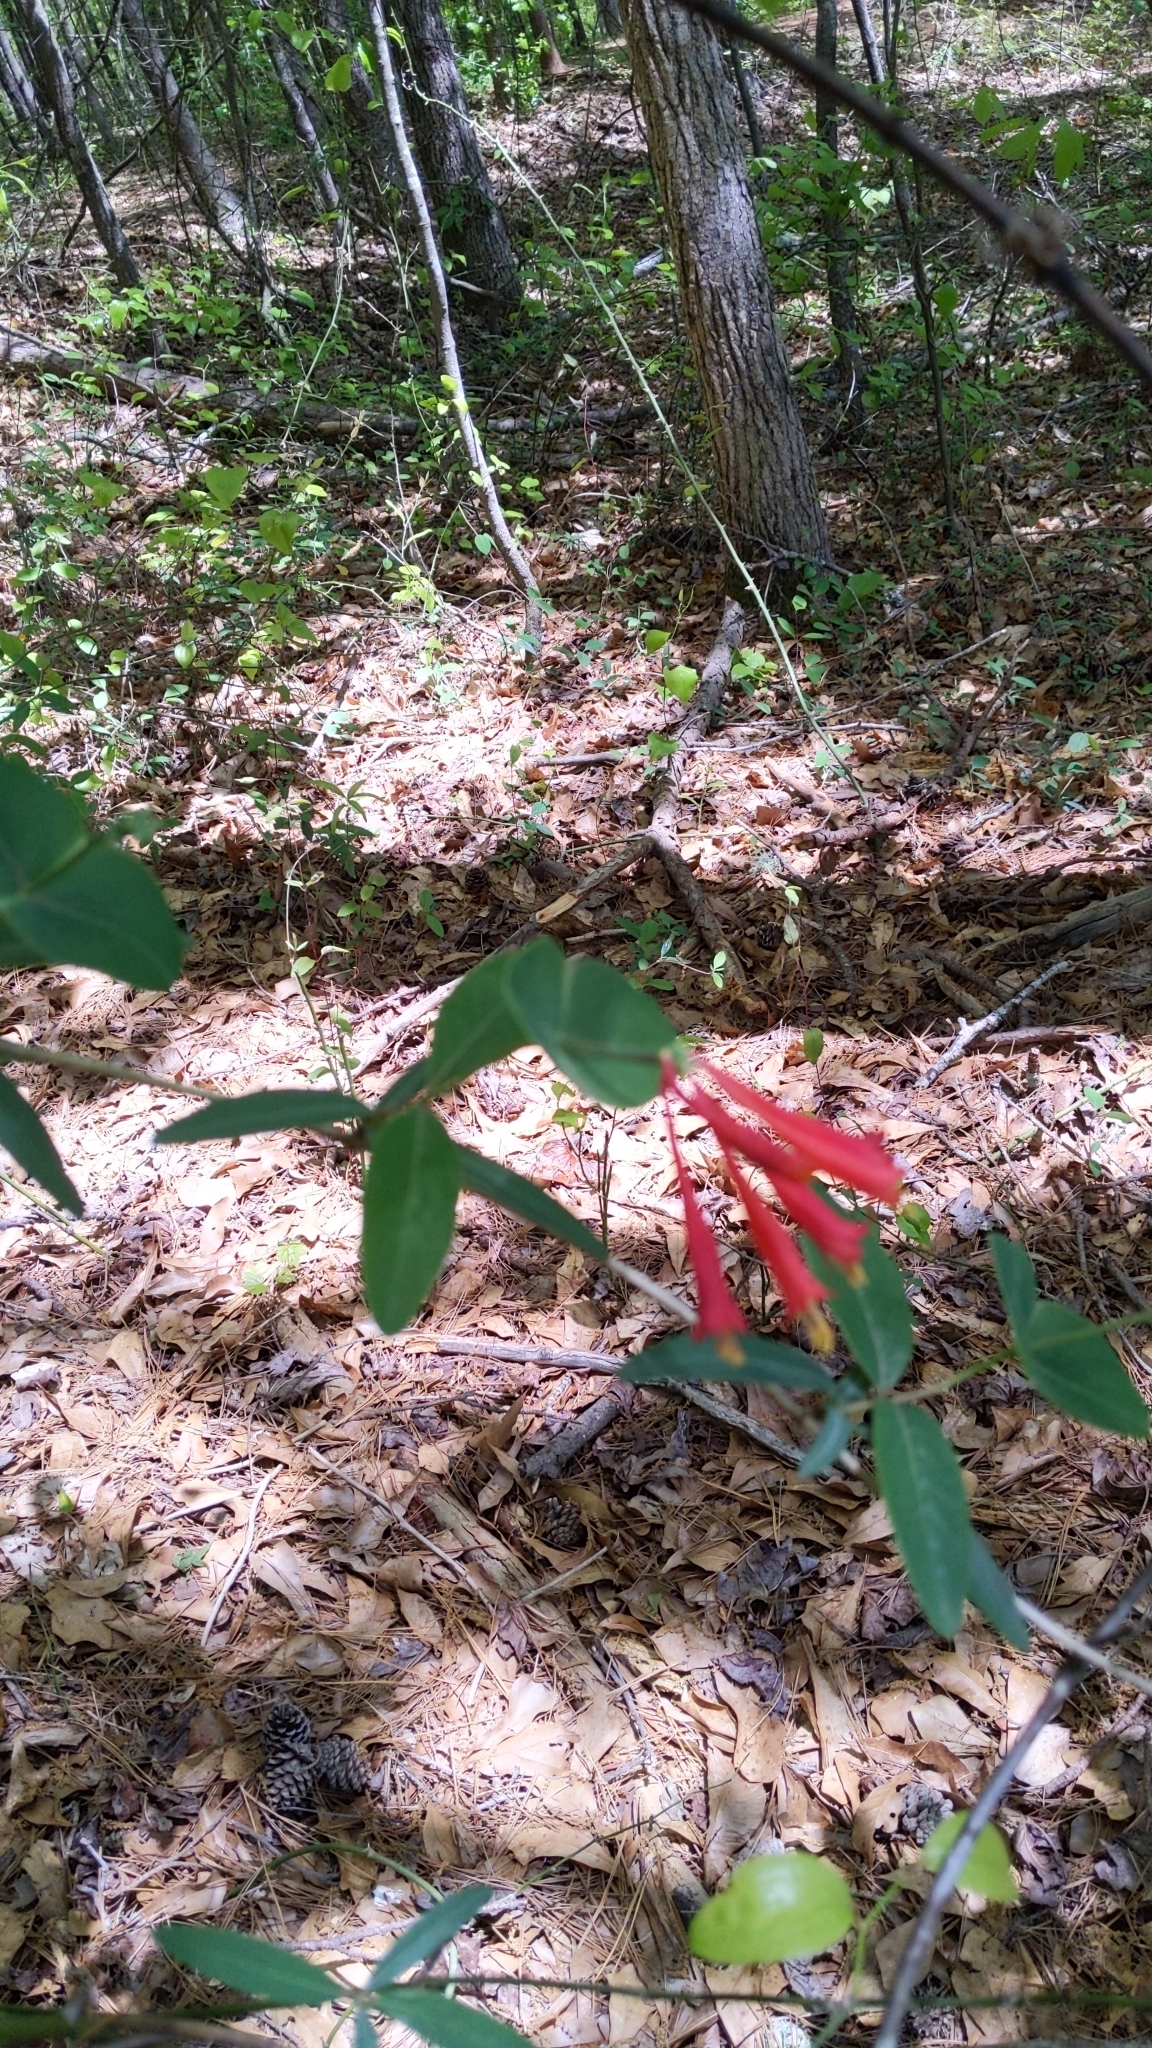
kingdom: Plantae
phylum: Tracheophyta
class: Magnoliopsida
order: Dipsacales
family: Caprifoliaceae
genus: Lonicera
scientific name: Lonicera sempervirens
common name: Coral honeysuckle
